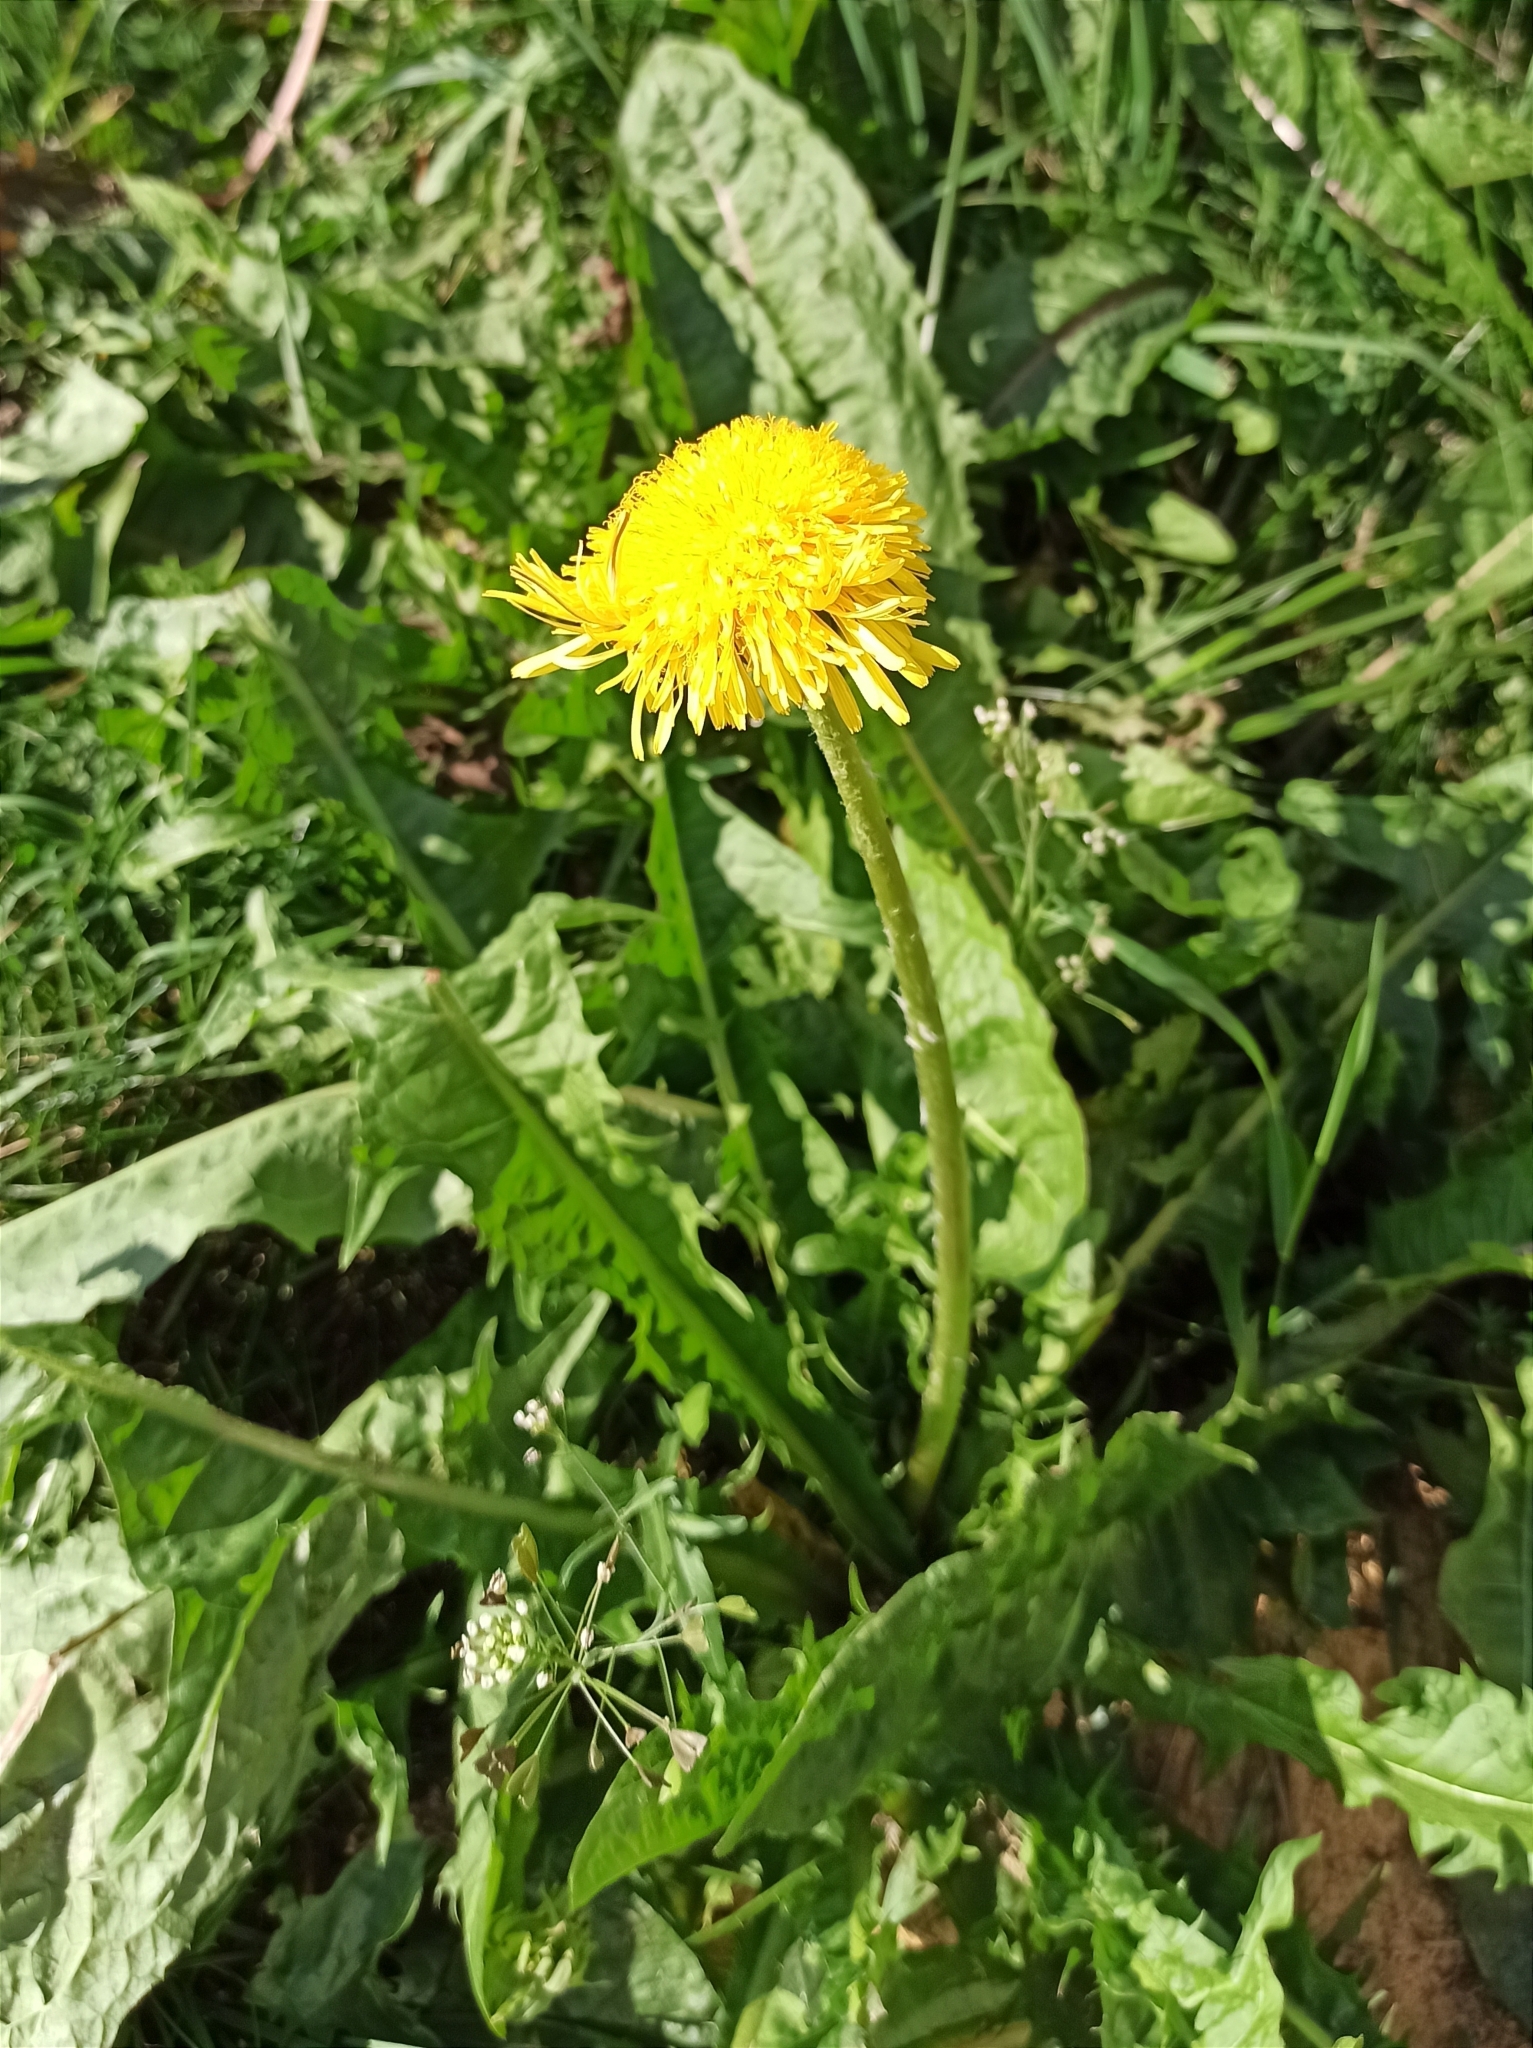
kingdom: Plantae
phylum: Tracheophyta
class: Magnoliopsida
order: Asterales
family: Asteraceae
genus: Taraxacum
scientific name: Taraxacum officinale
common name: Common dandelion
